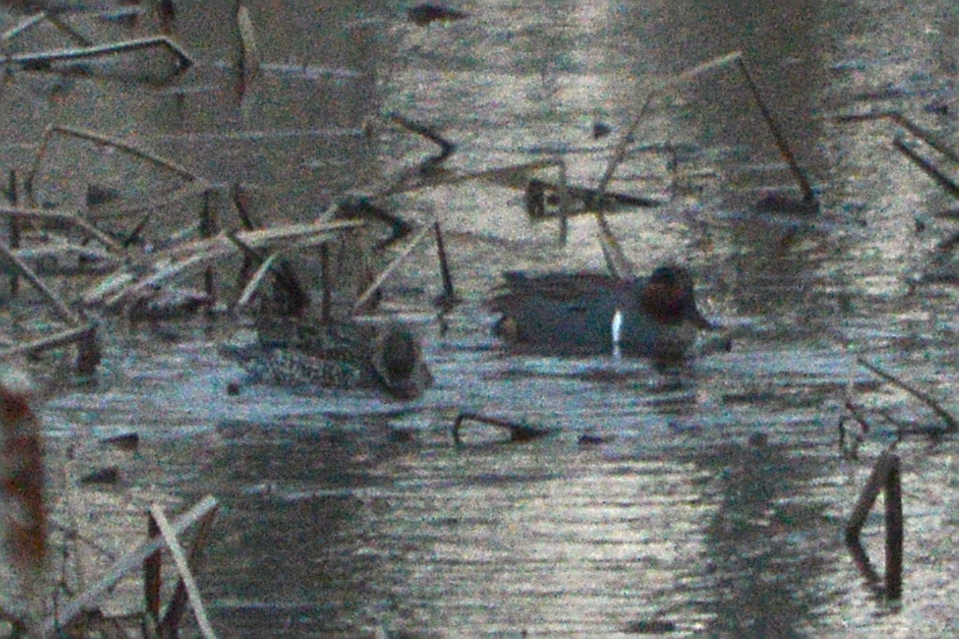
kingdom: Animalia
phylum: Chordata
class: Aves
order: Anseriformes
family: Anatidae
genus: Anas
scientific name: Anas carolinensis
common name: Green-winged teal
